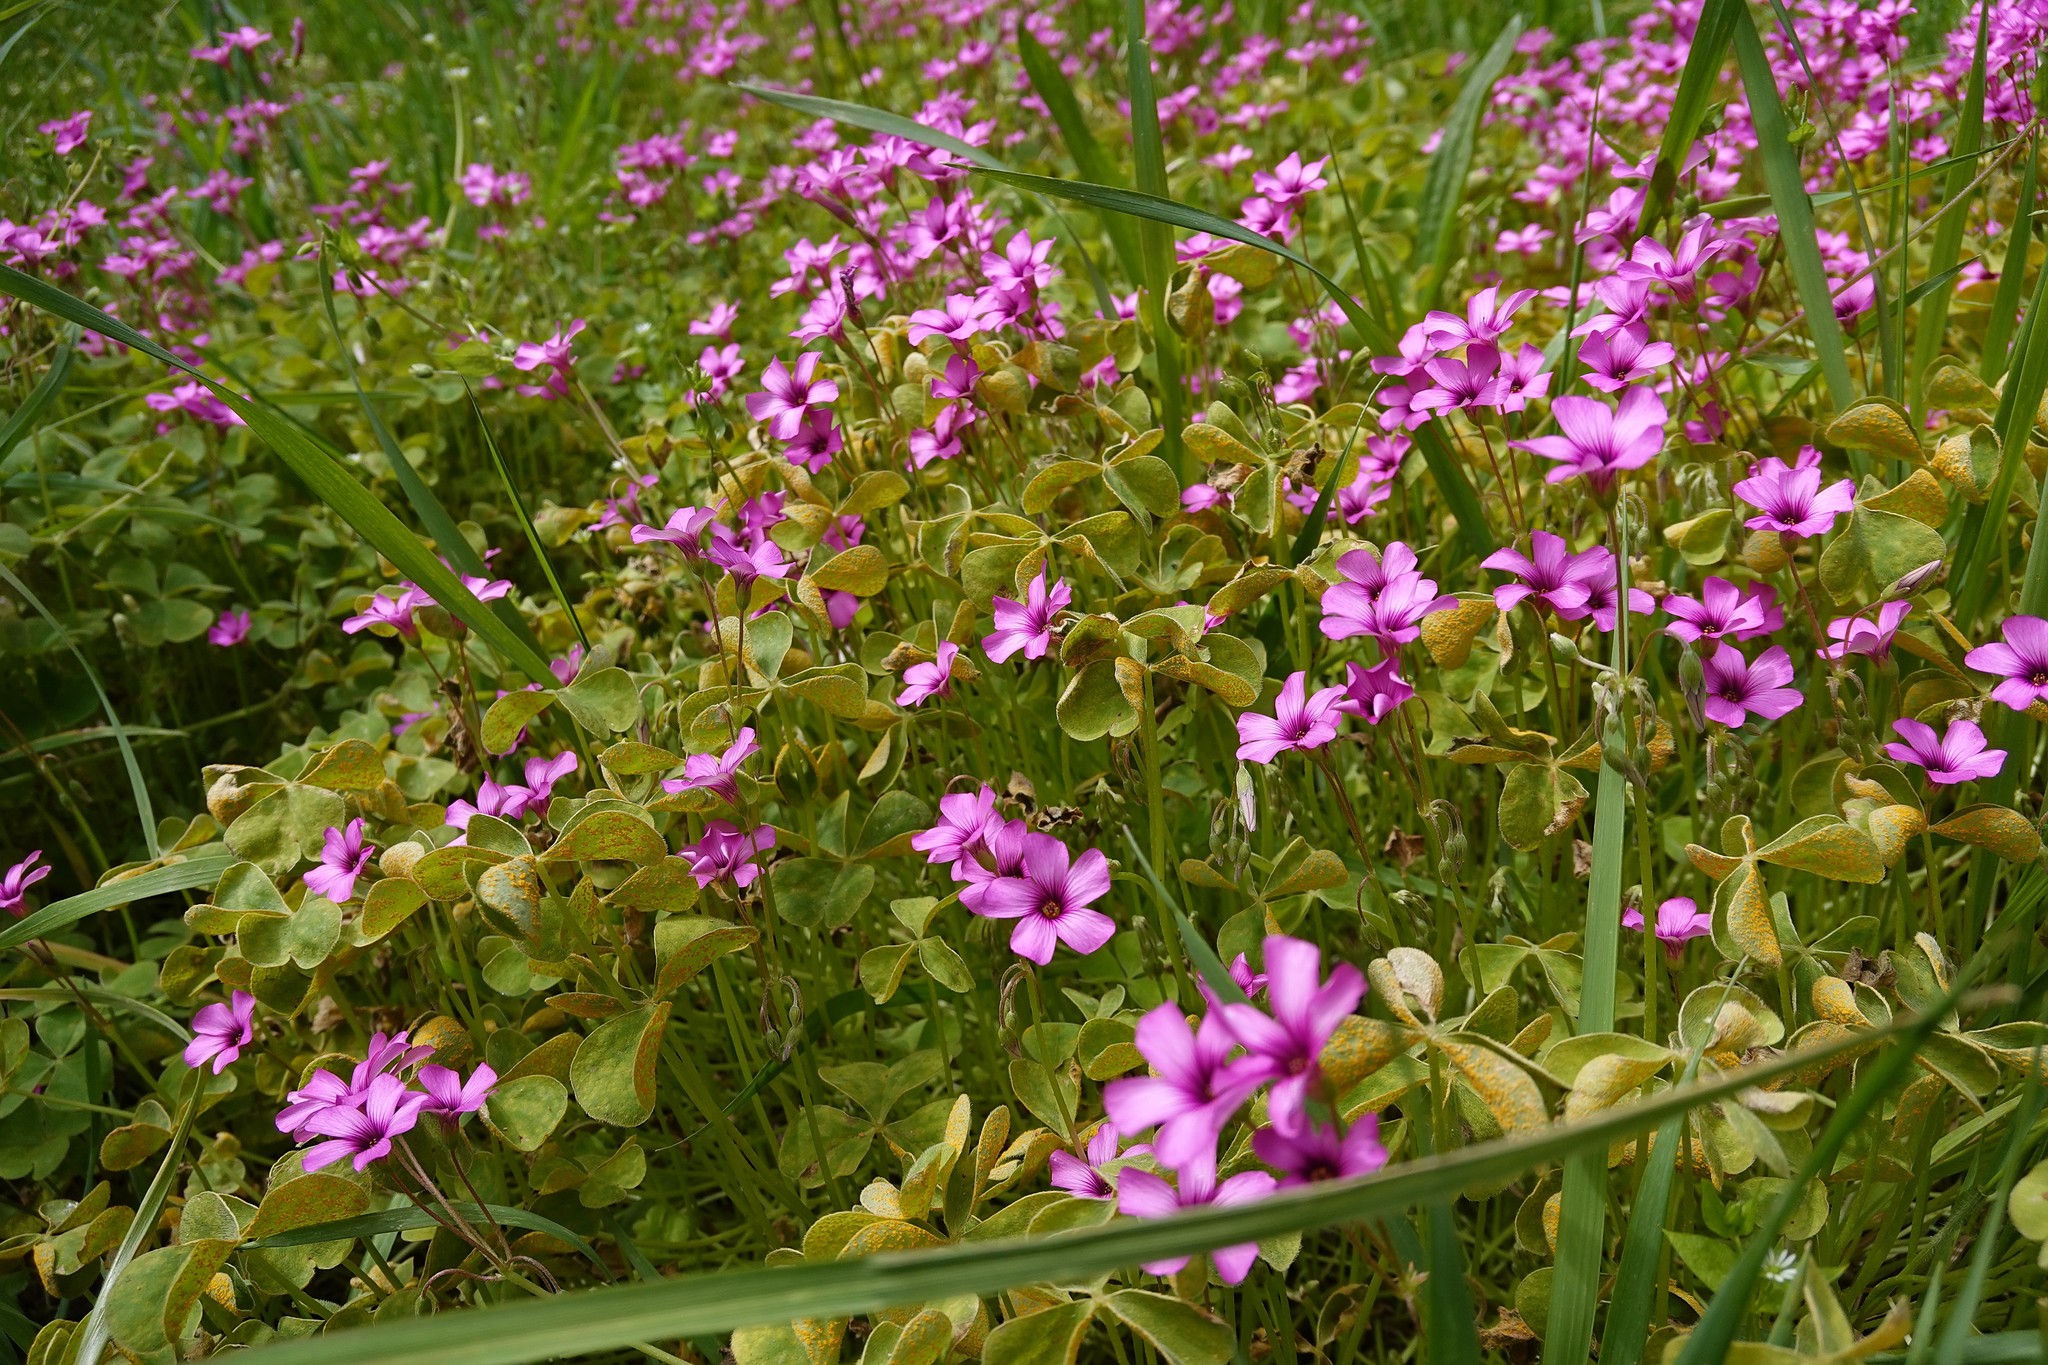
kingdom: Plantae
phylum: Tracheophyta
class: Magnoliopsida
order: Oxalidales
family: Oxalidaceae
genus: Oxalis
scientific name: Oxalis articulata
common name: Pink-sorrel
